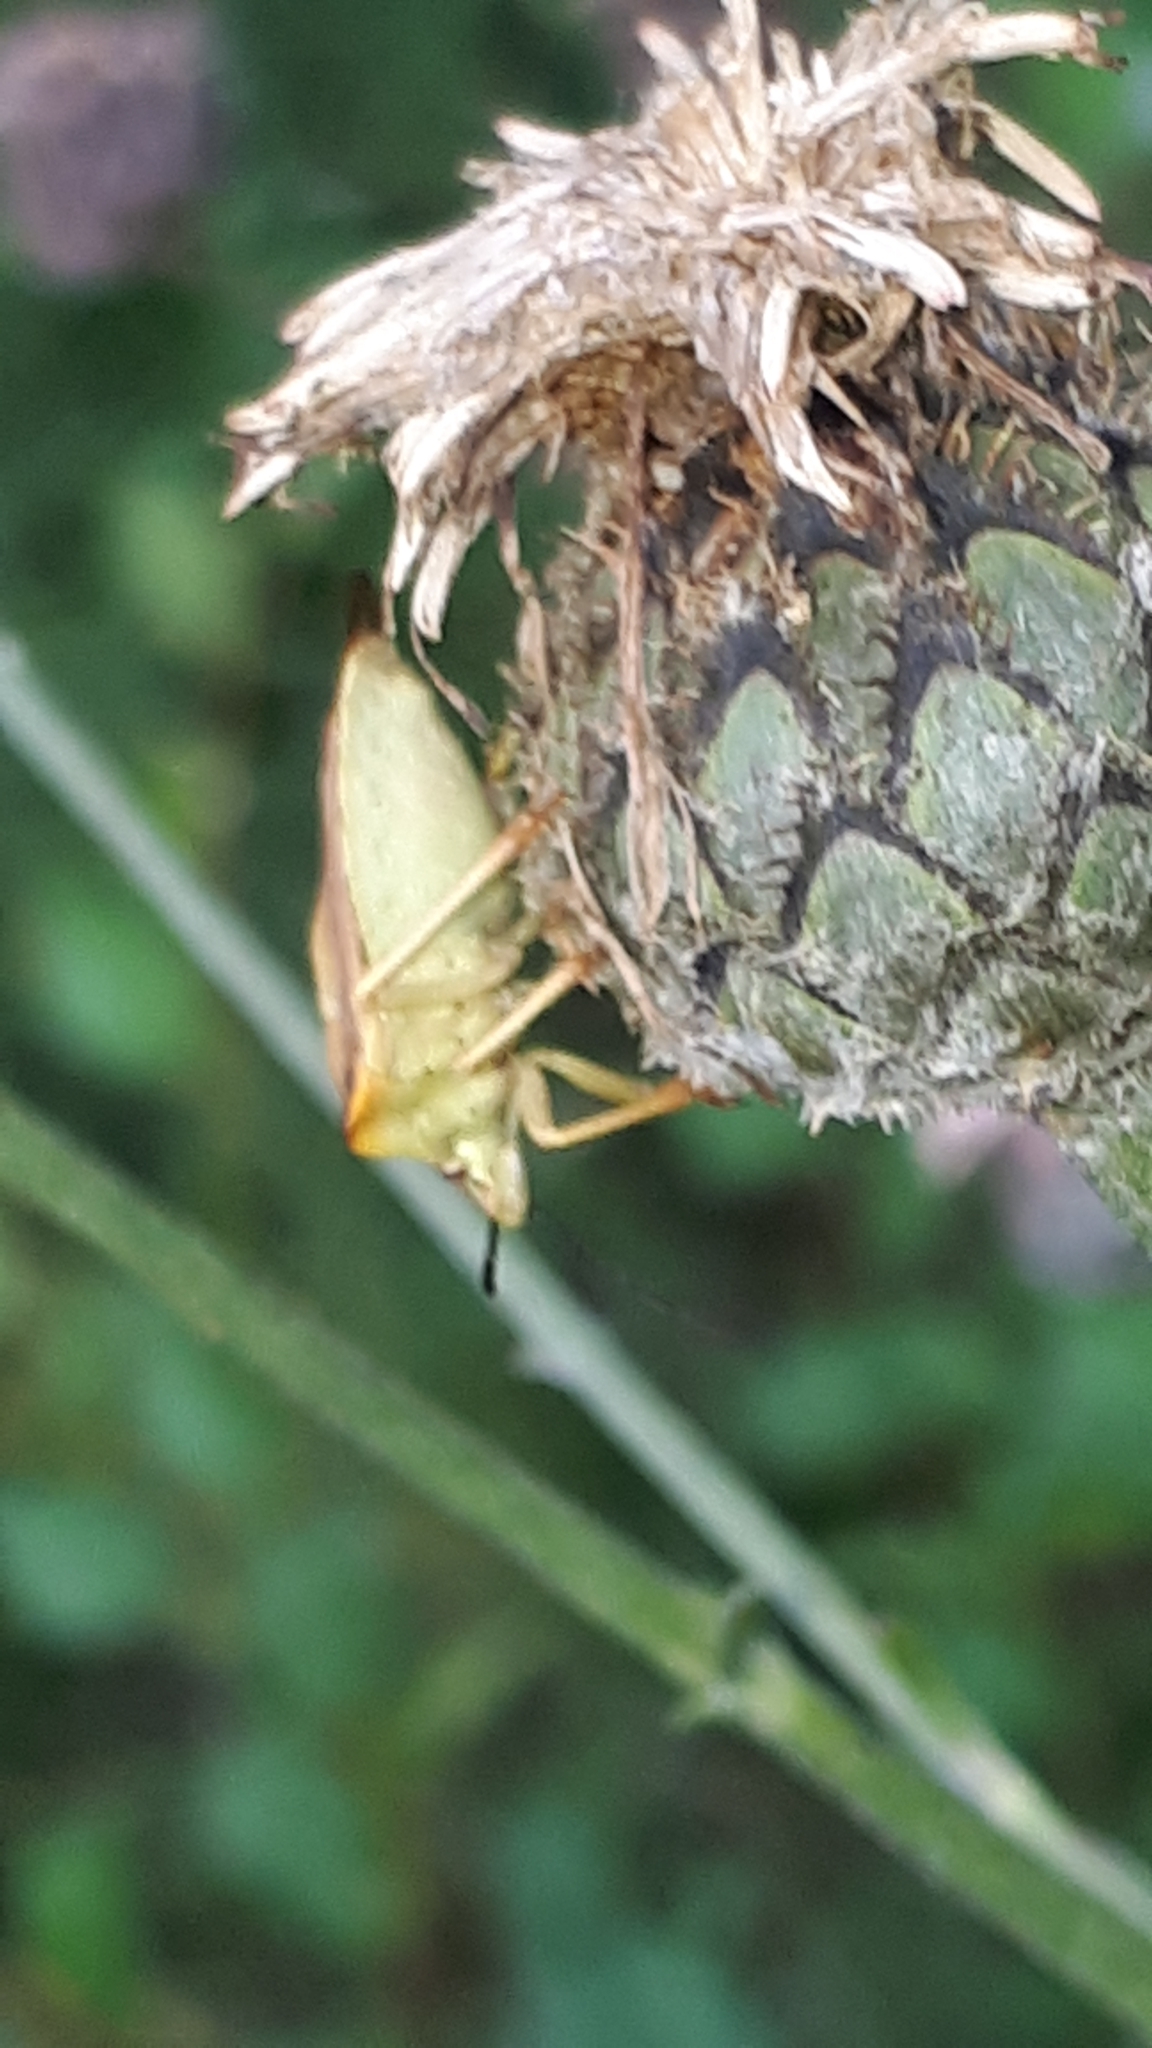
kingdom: Animalia
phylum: Arthropoda
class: Insecta
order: Hemiptera
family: Pentatomidae
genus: Carpocoris
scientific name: Carpocoris fuscispinus
